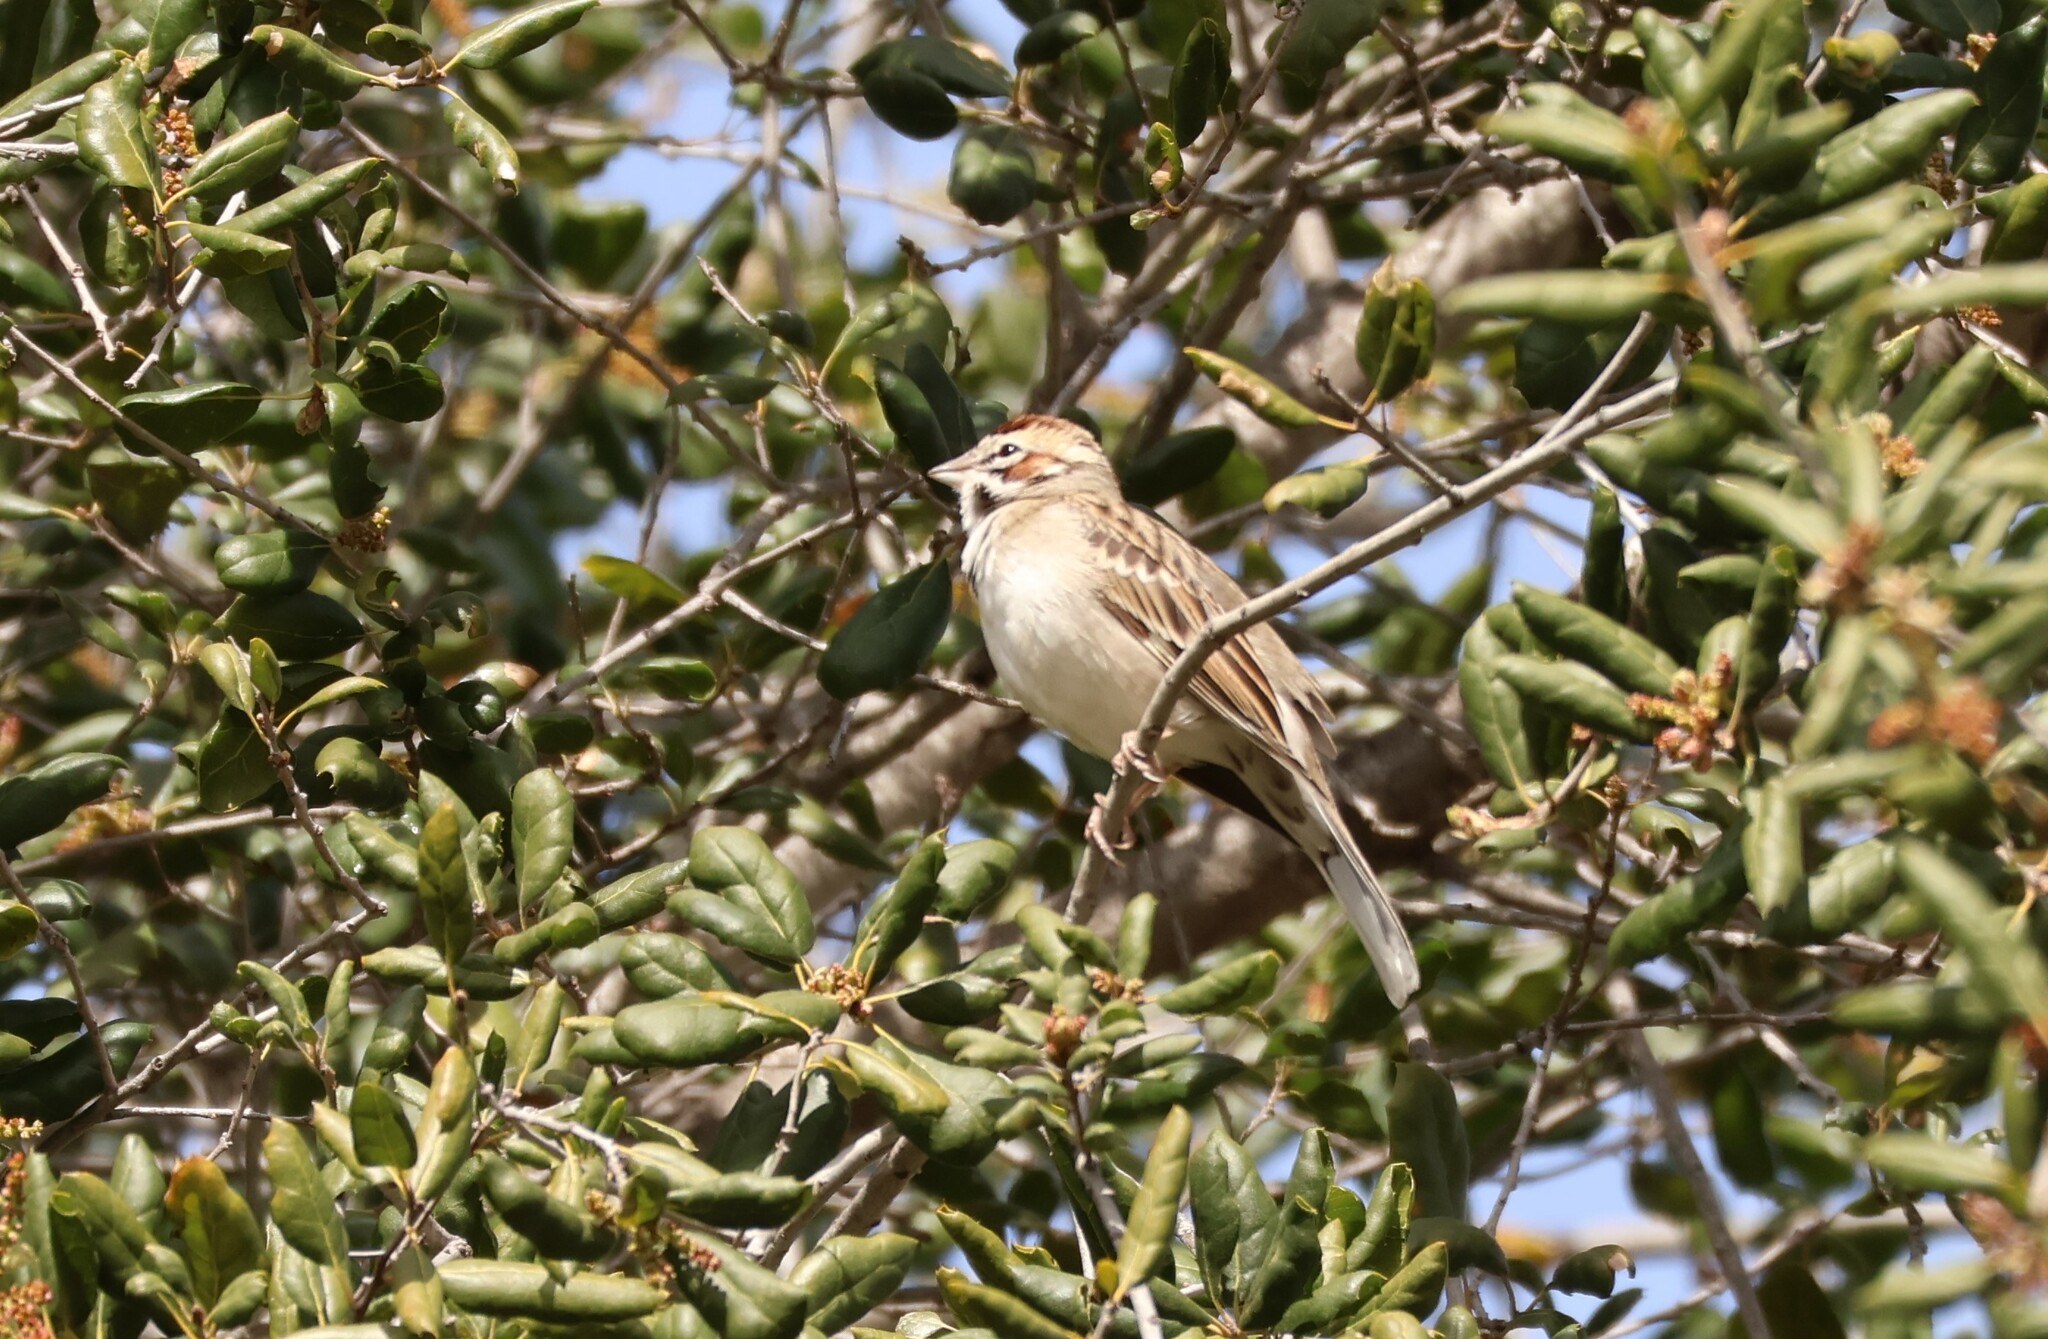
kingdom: Animalia
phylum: Chordata
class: Aves
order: Passeriformes
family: Passerellidae
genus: Chondestes
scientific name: Chondestes grammacus
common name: Lark sparrow
